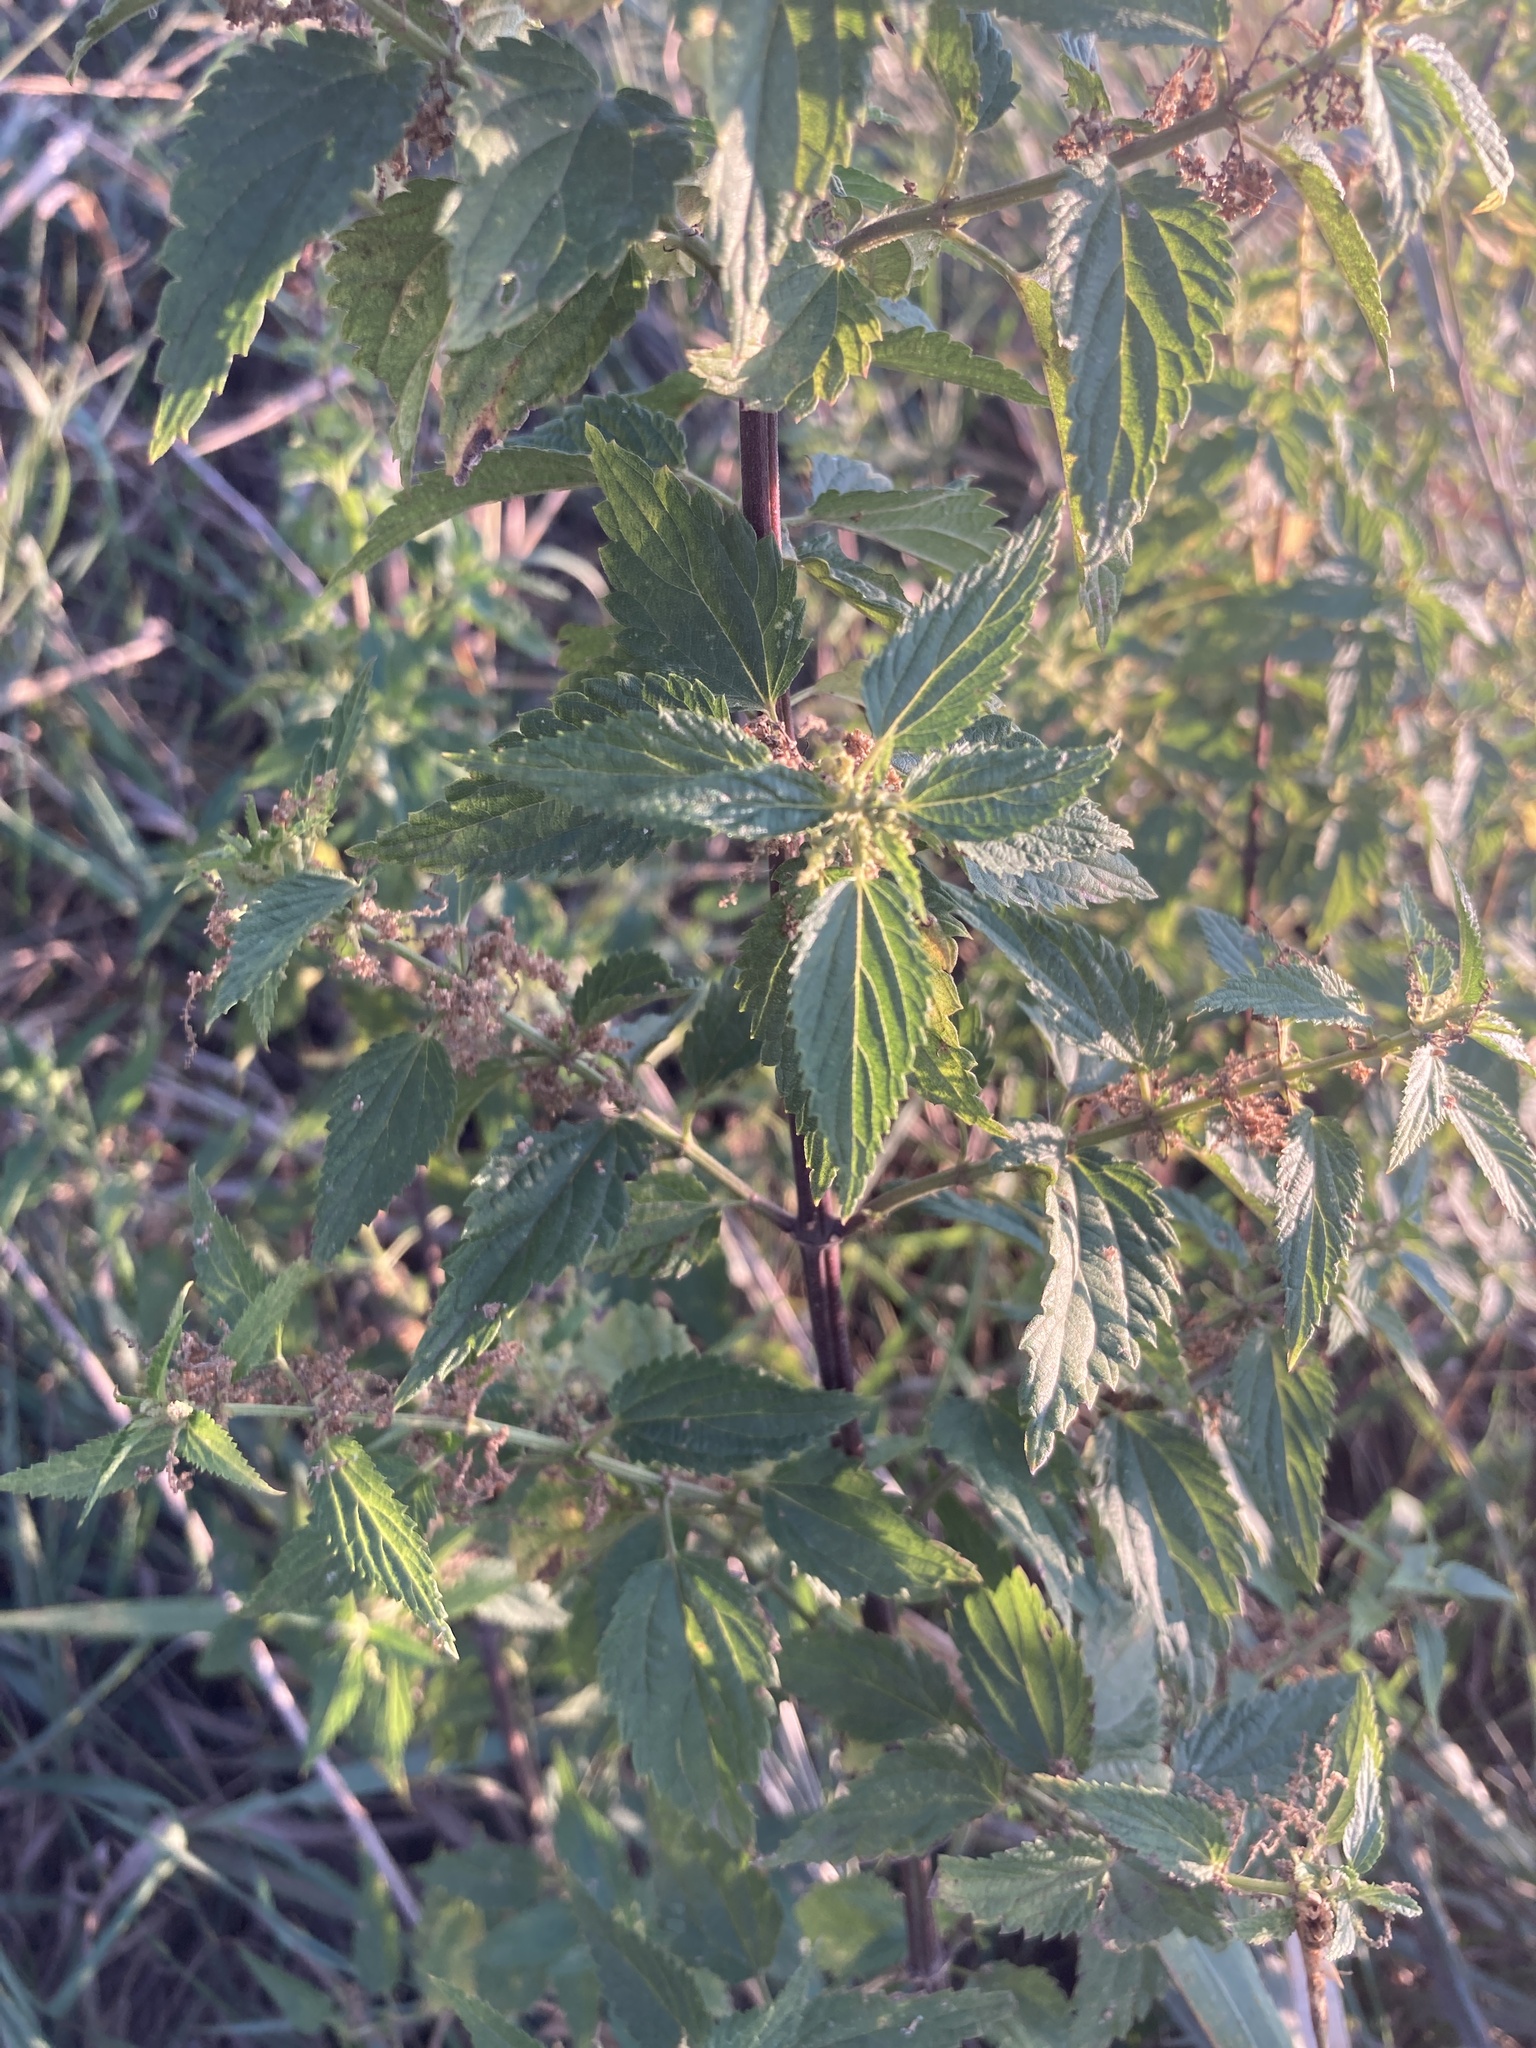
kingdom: Plantae
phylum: Tracheophyta
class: Magnoliopsida
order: Rosales
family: Urticaceae
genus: Urtica
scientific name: Urtica dioica
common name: Common nettle
